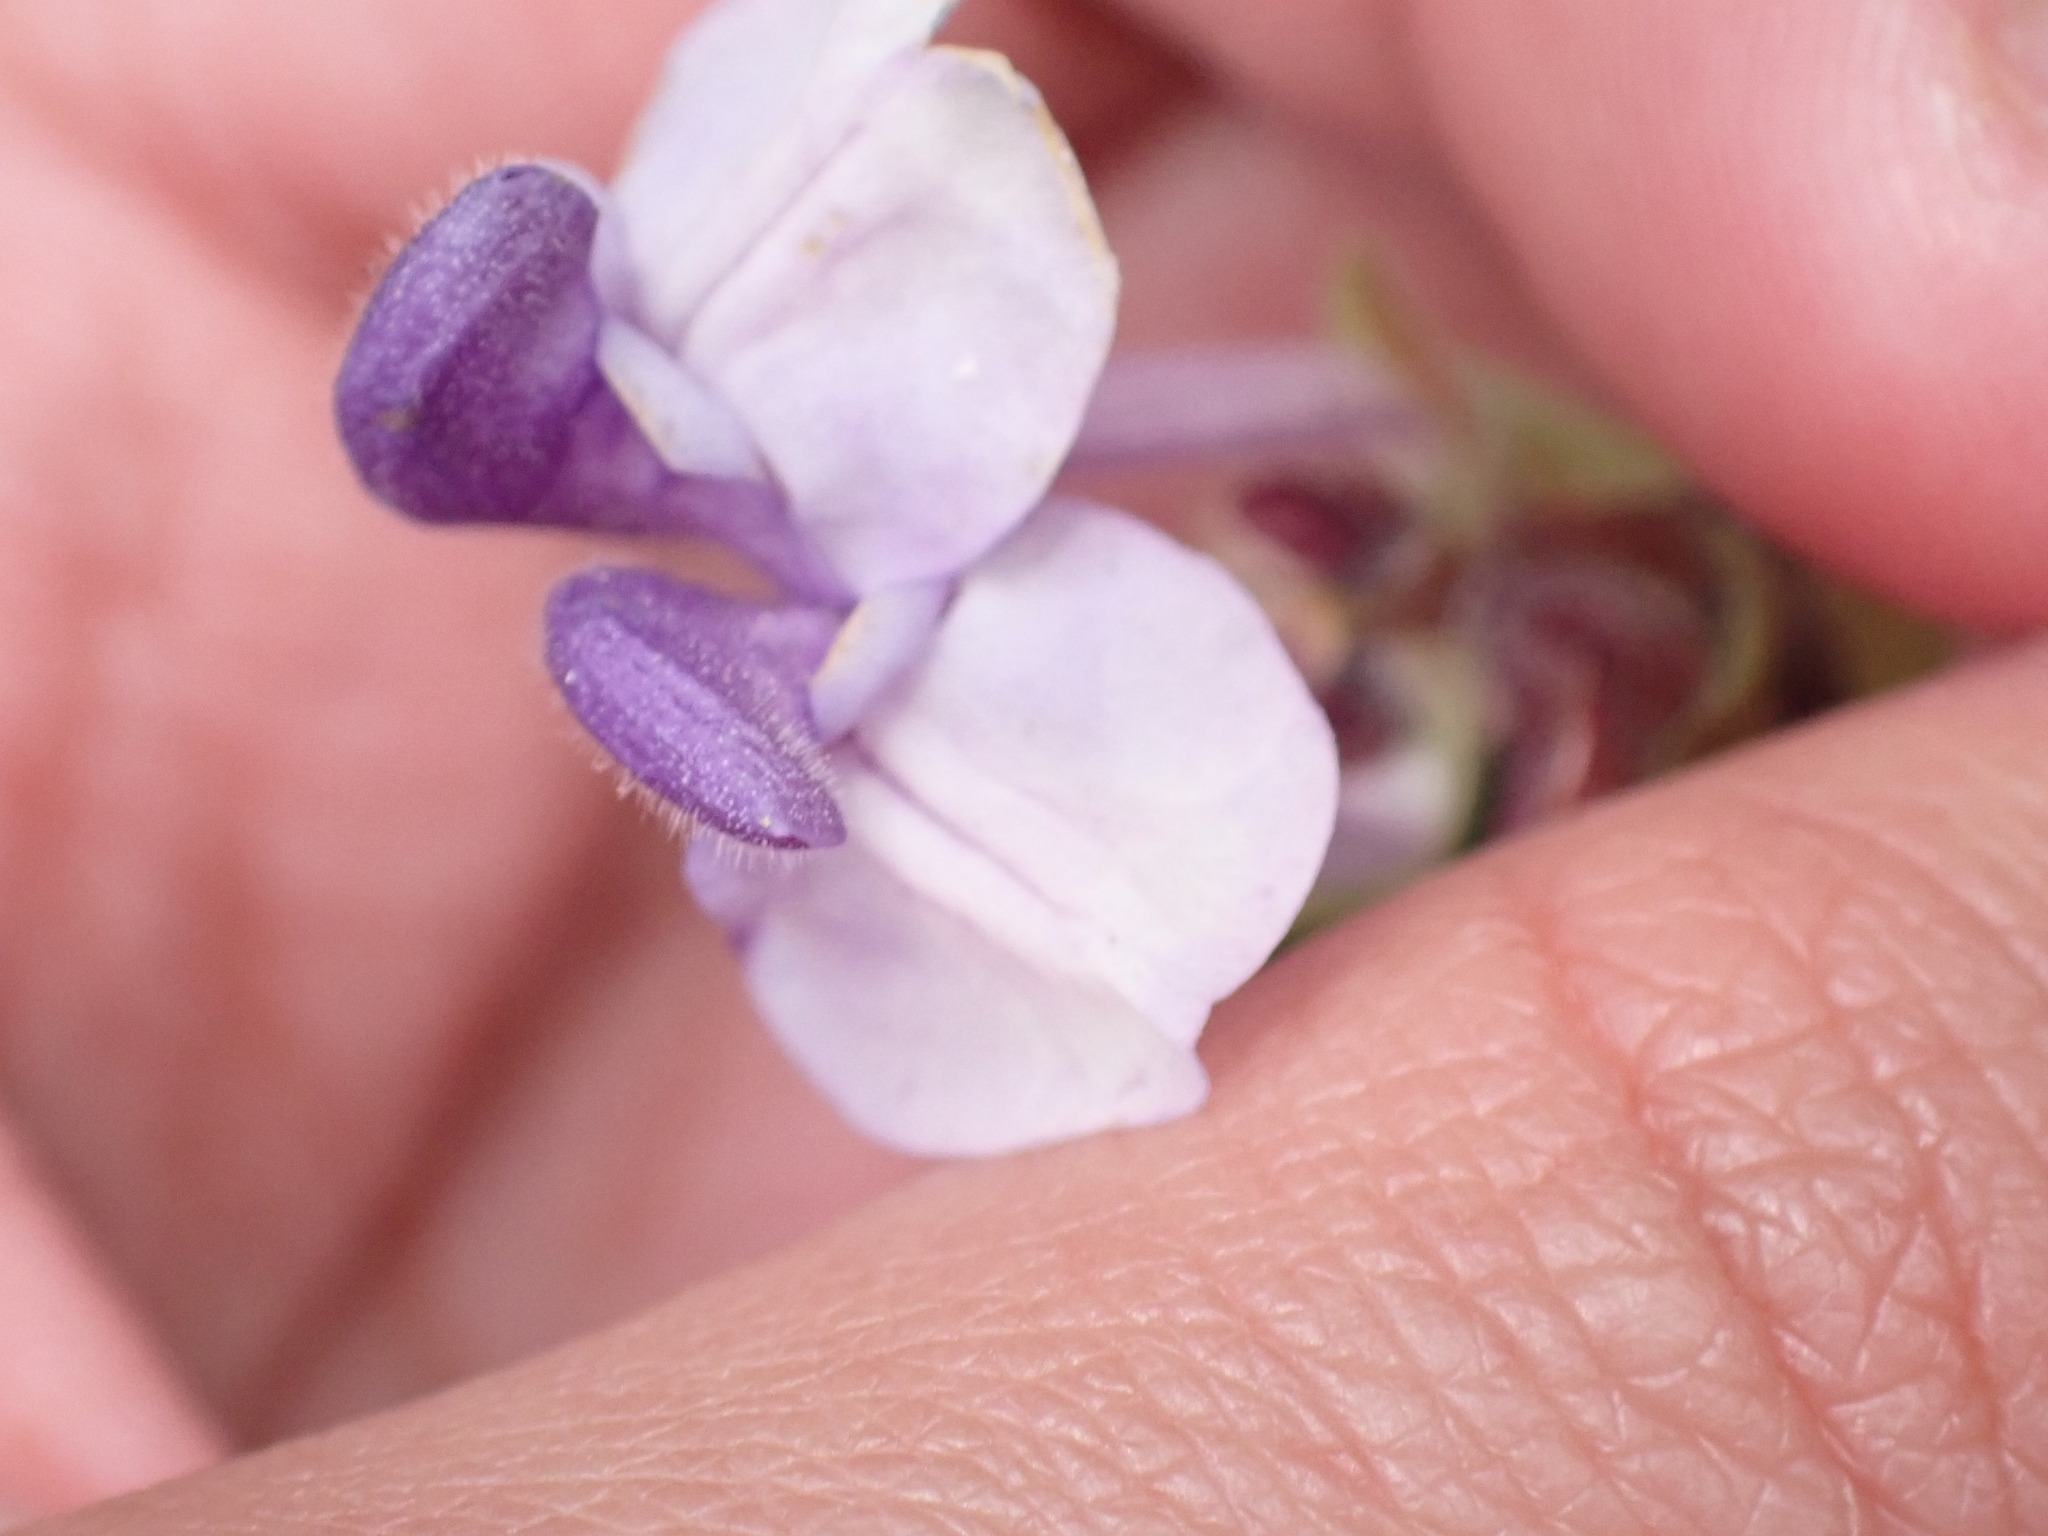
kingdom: Plantae
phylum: Tracheophyta
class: Magnoliopsida
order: Lamiales
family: Lamiaceae
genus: Scutellaria
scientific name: Scutellaria alpina
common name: Alpine scullcap
